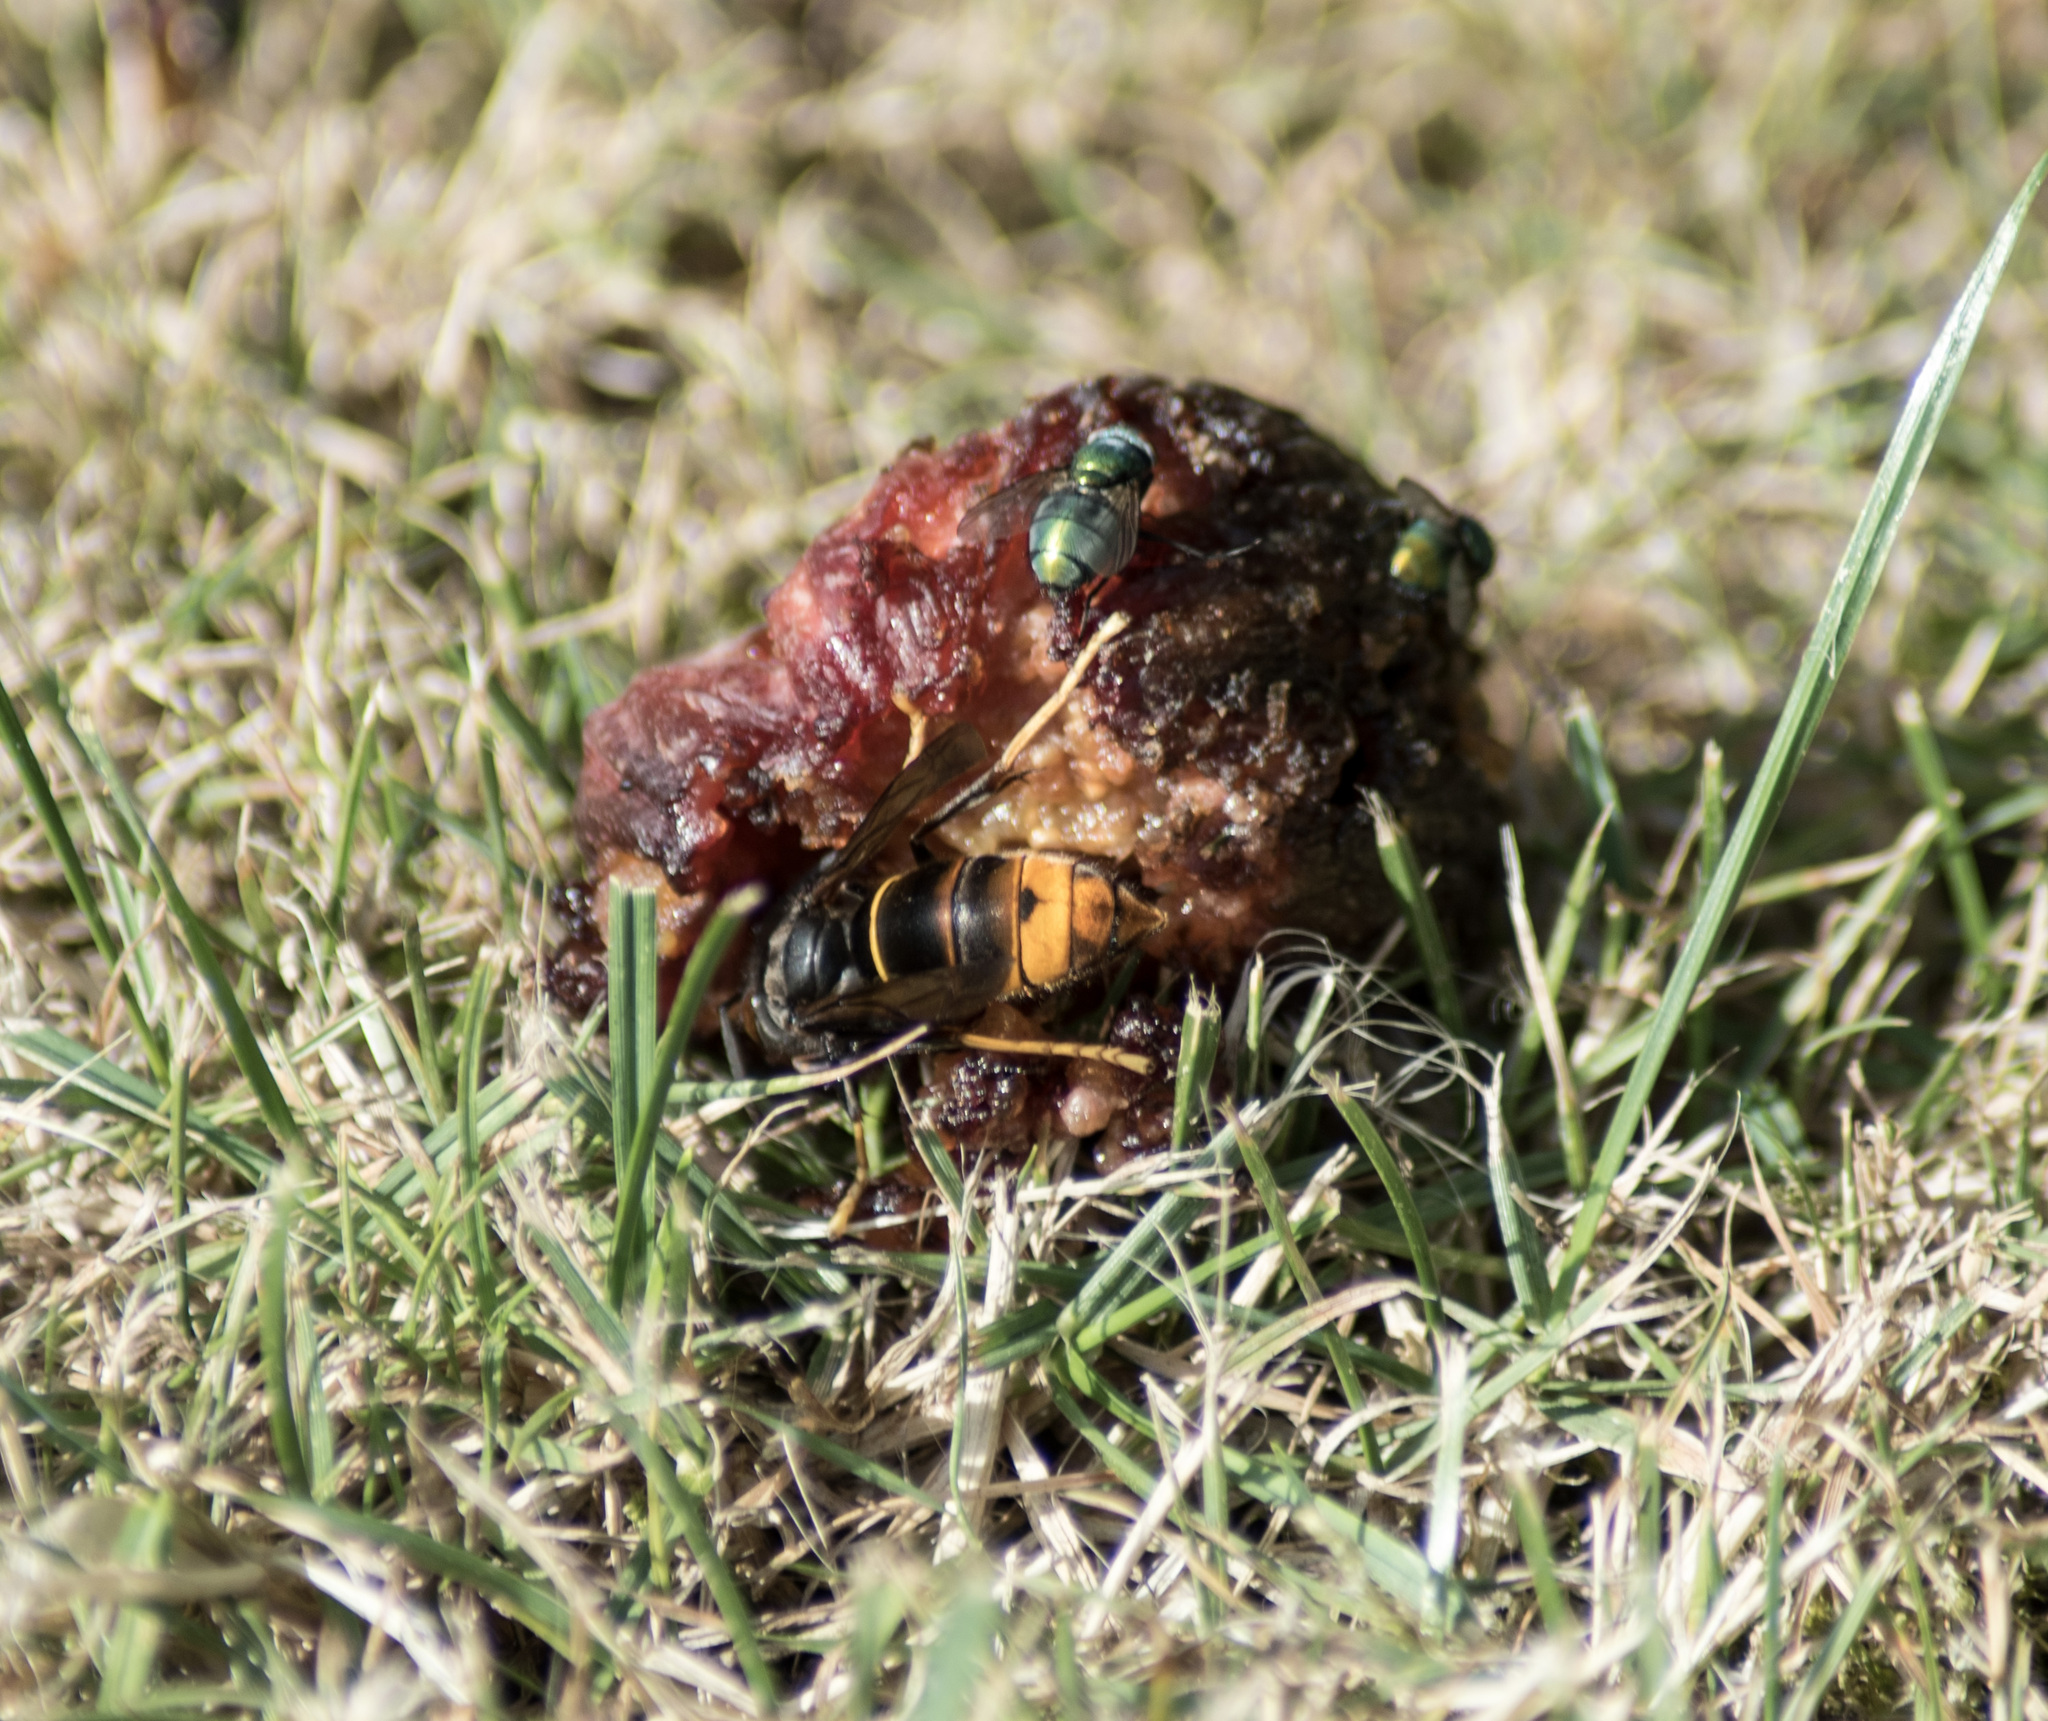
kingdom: Animalia
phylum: Arthropoda
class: Insecta
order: Hymenoptera
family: Vespidae
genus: Vespa
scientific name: Vespa velutina
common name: Asian hornet
